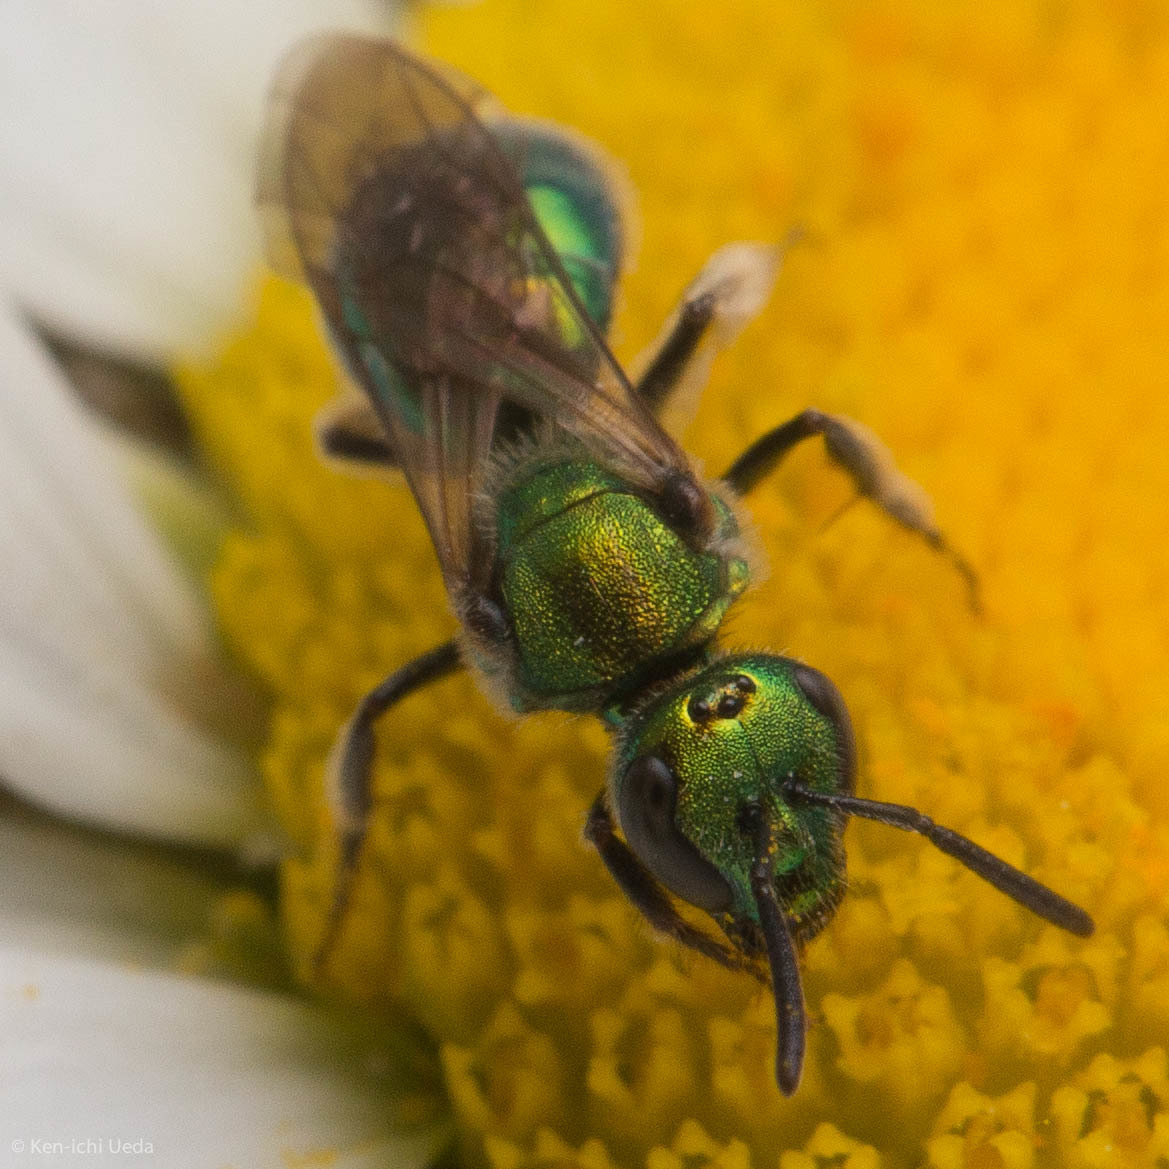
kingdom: Animalia
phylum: Arthropoda
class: Insecta
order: Hymenoptera
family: Halictidae
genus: Augochlora
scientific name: Augochlora pura
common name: Pure green sweat bee
